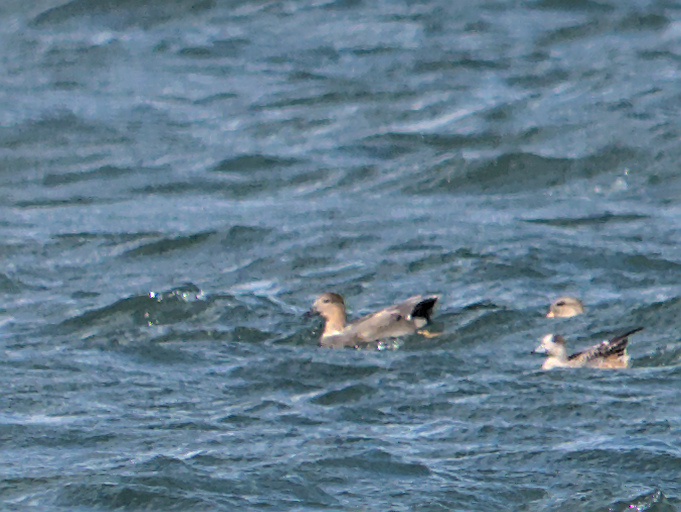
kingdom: Animalia
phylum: Chordata
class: Aves
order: Anseriformes
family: Anatidae
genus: Mareca
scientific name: Mareca strepera
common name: Gadwall
